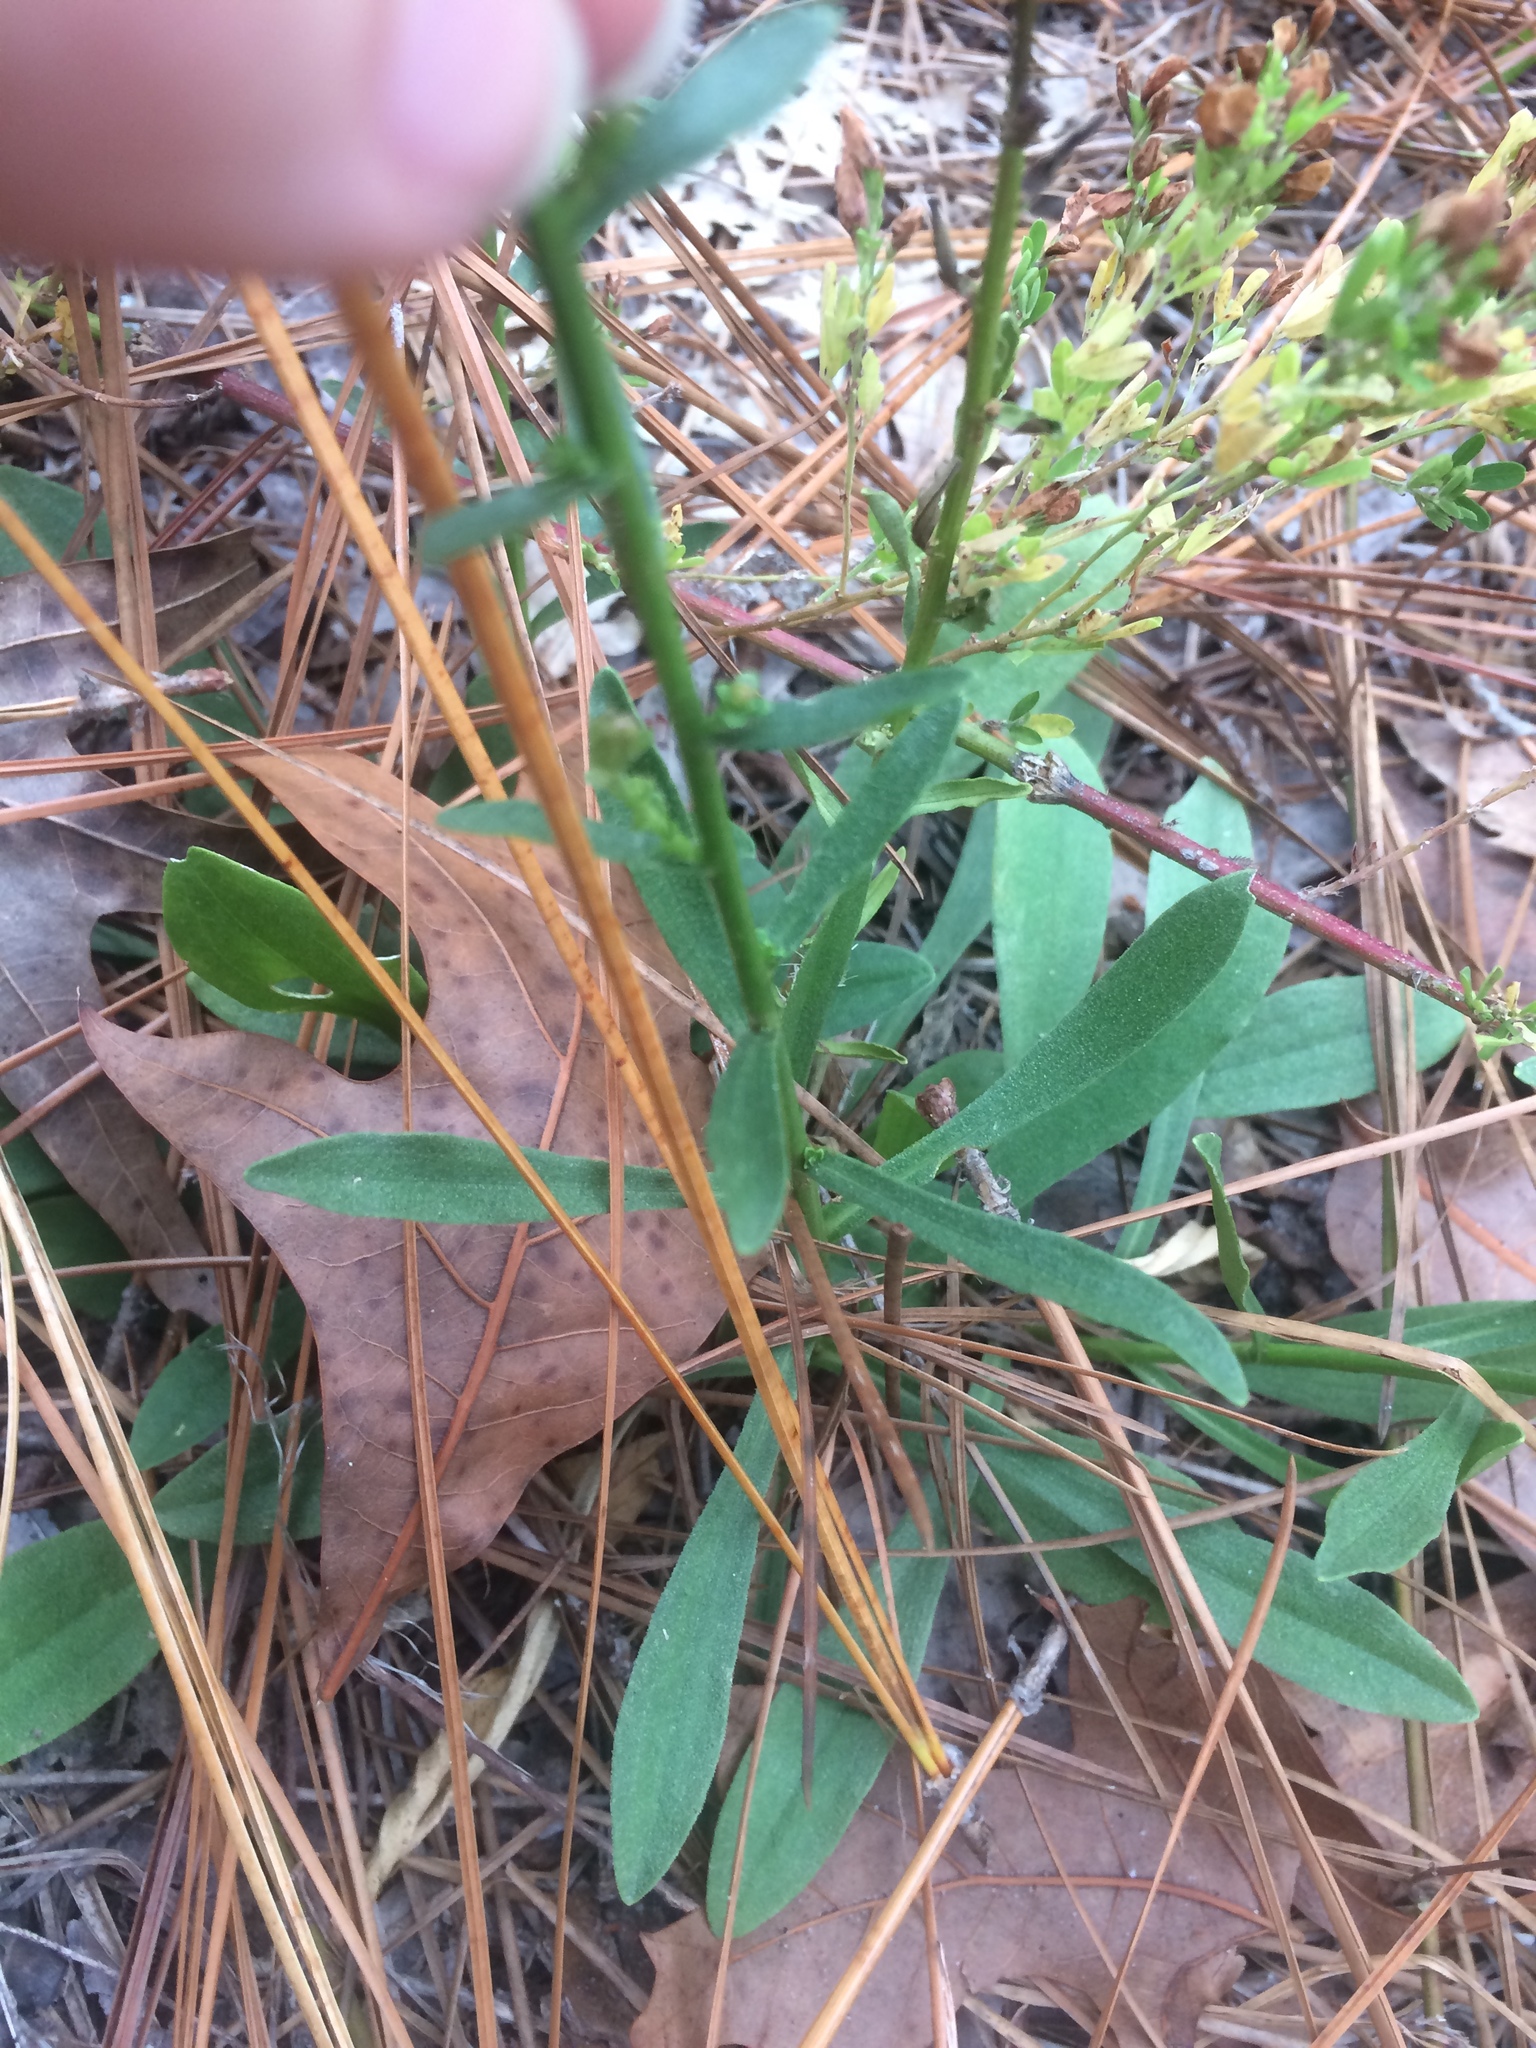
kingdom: Plantae
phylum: Tracheophyta
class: Magnoliopsida
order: Asterales
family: Asteraceae
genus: Carphephorus
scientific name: Carphephorus bellidifolius
